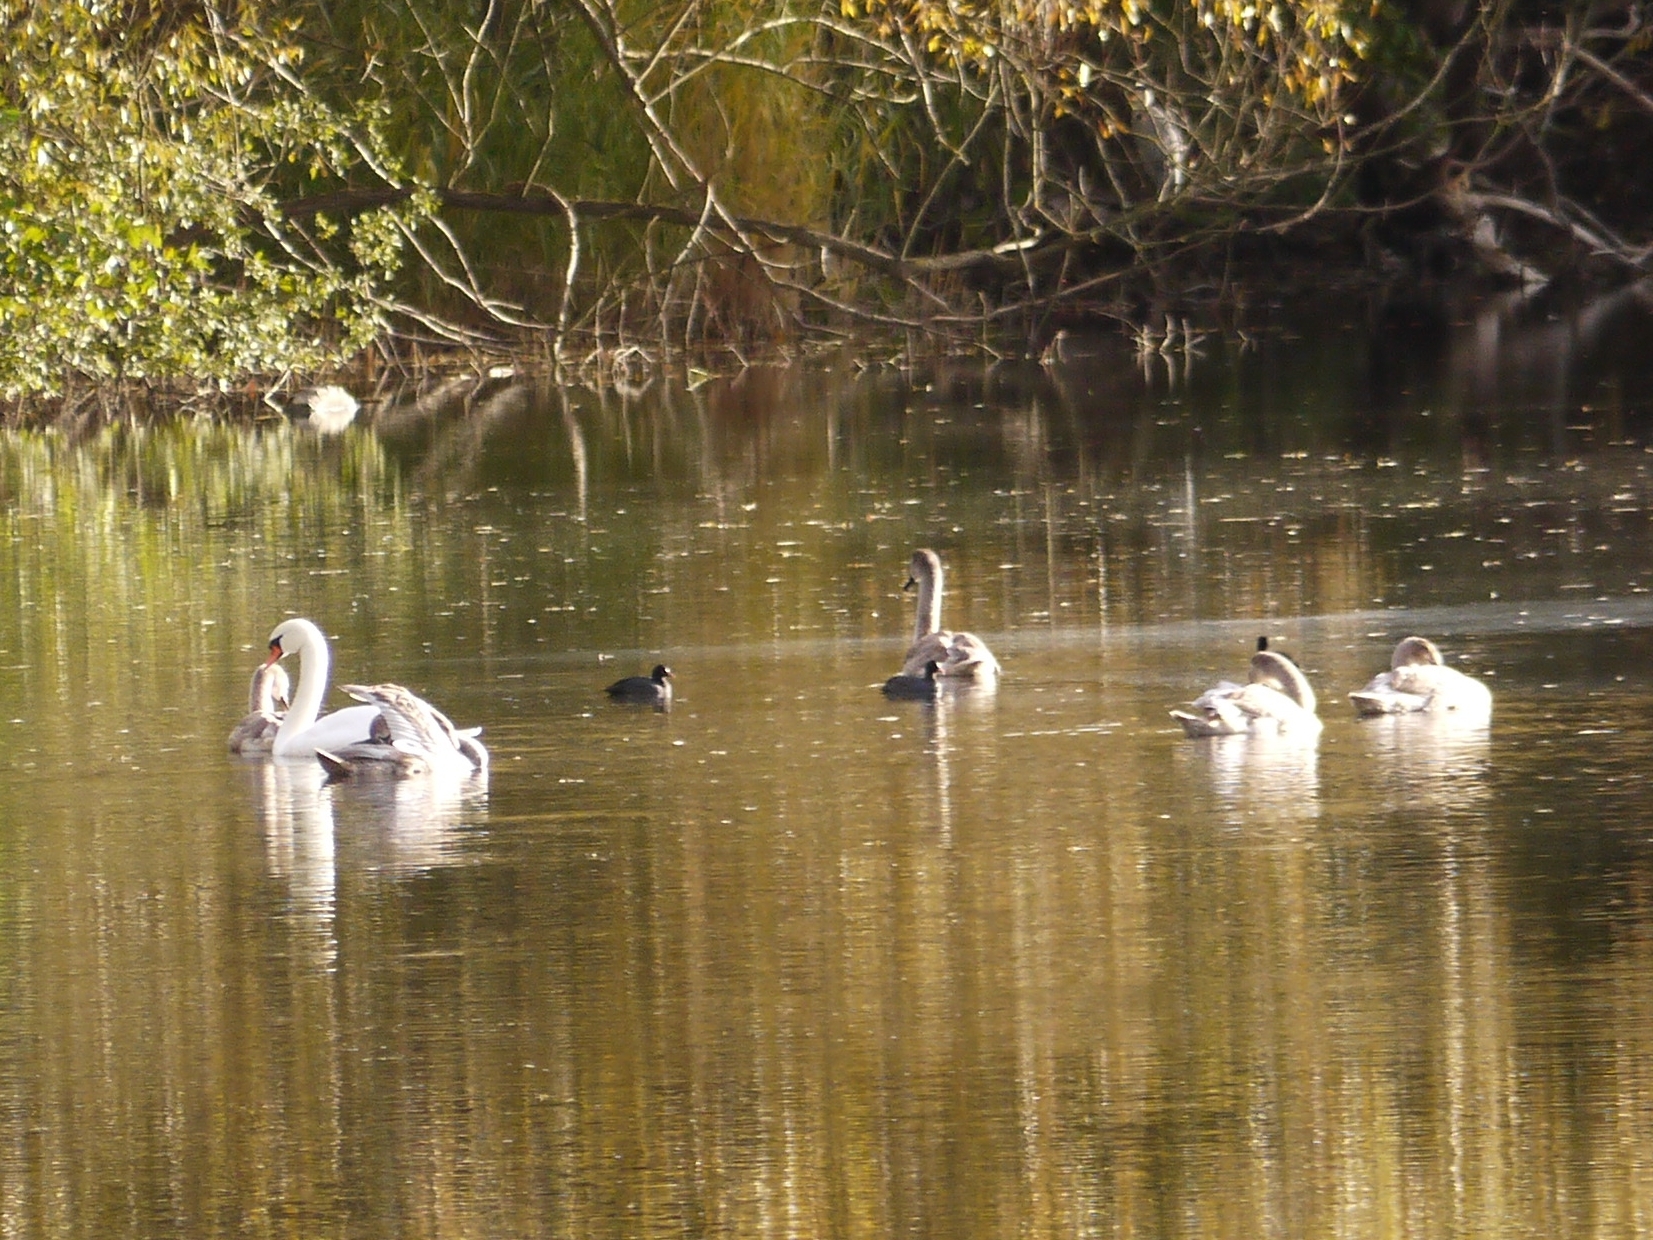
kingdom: Animalia
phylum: Chordata
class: Aves
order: Gruiformes
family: Rallidae
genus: Fulica
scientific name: Fulica atra
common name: Eurasian coot
